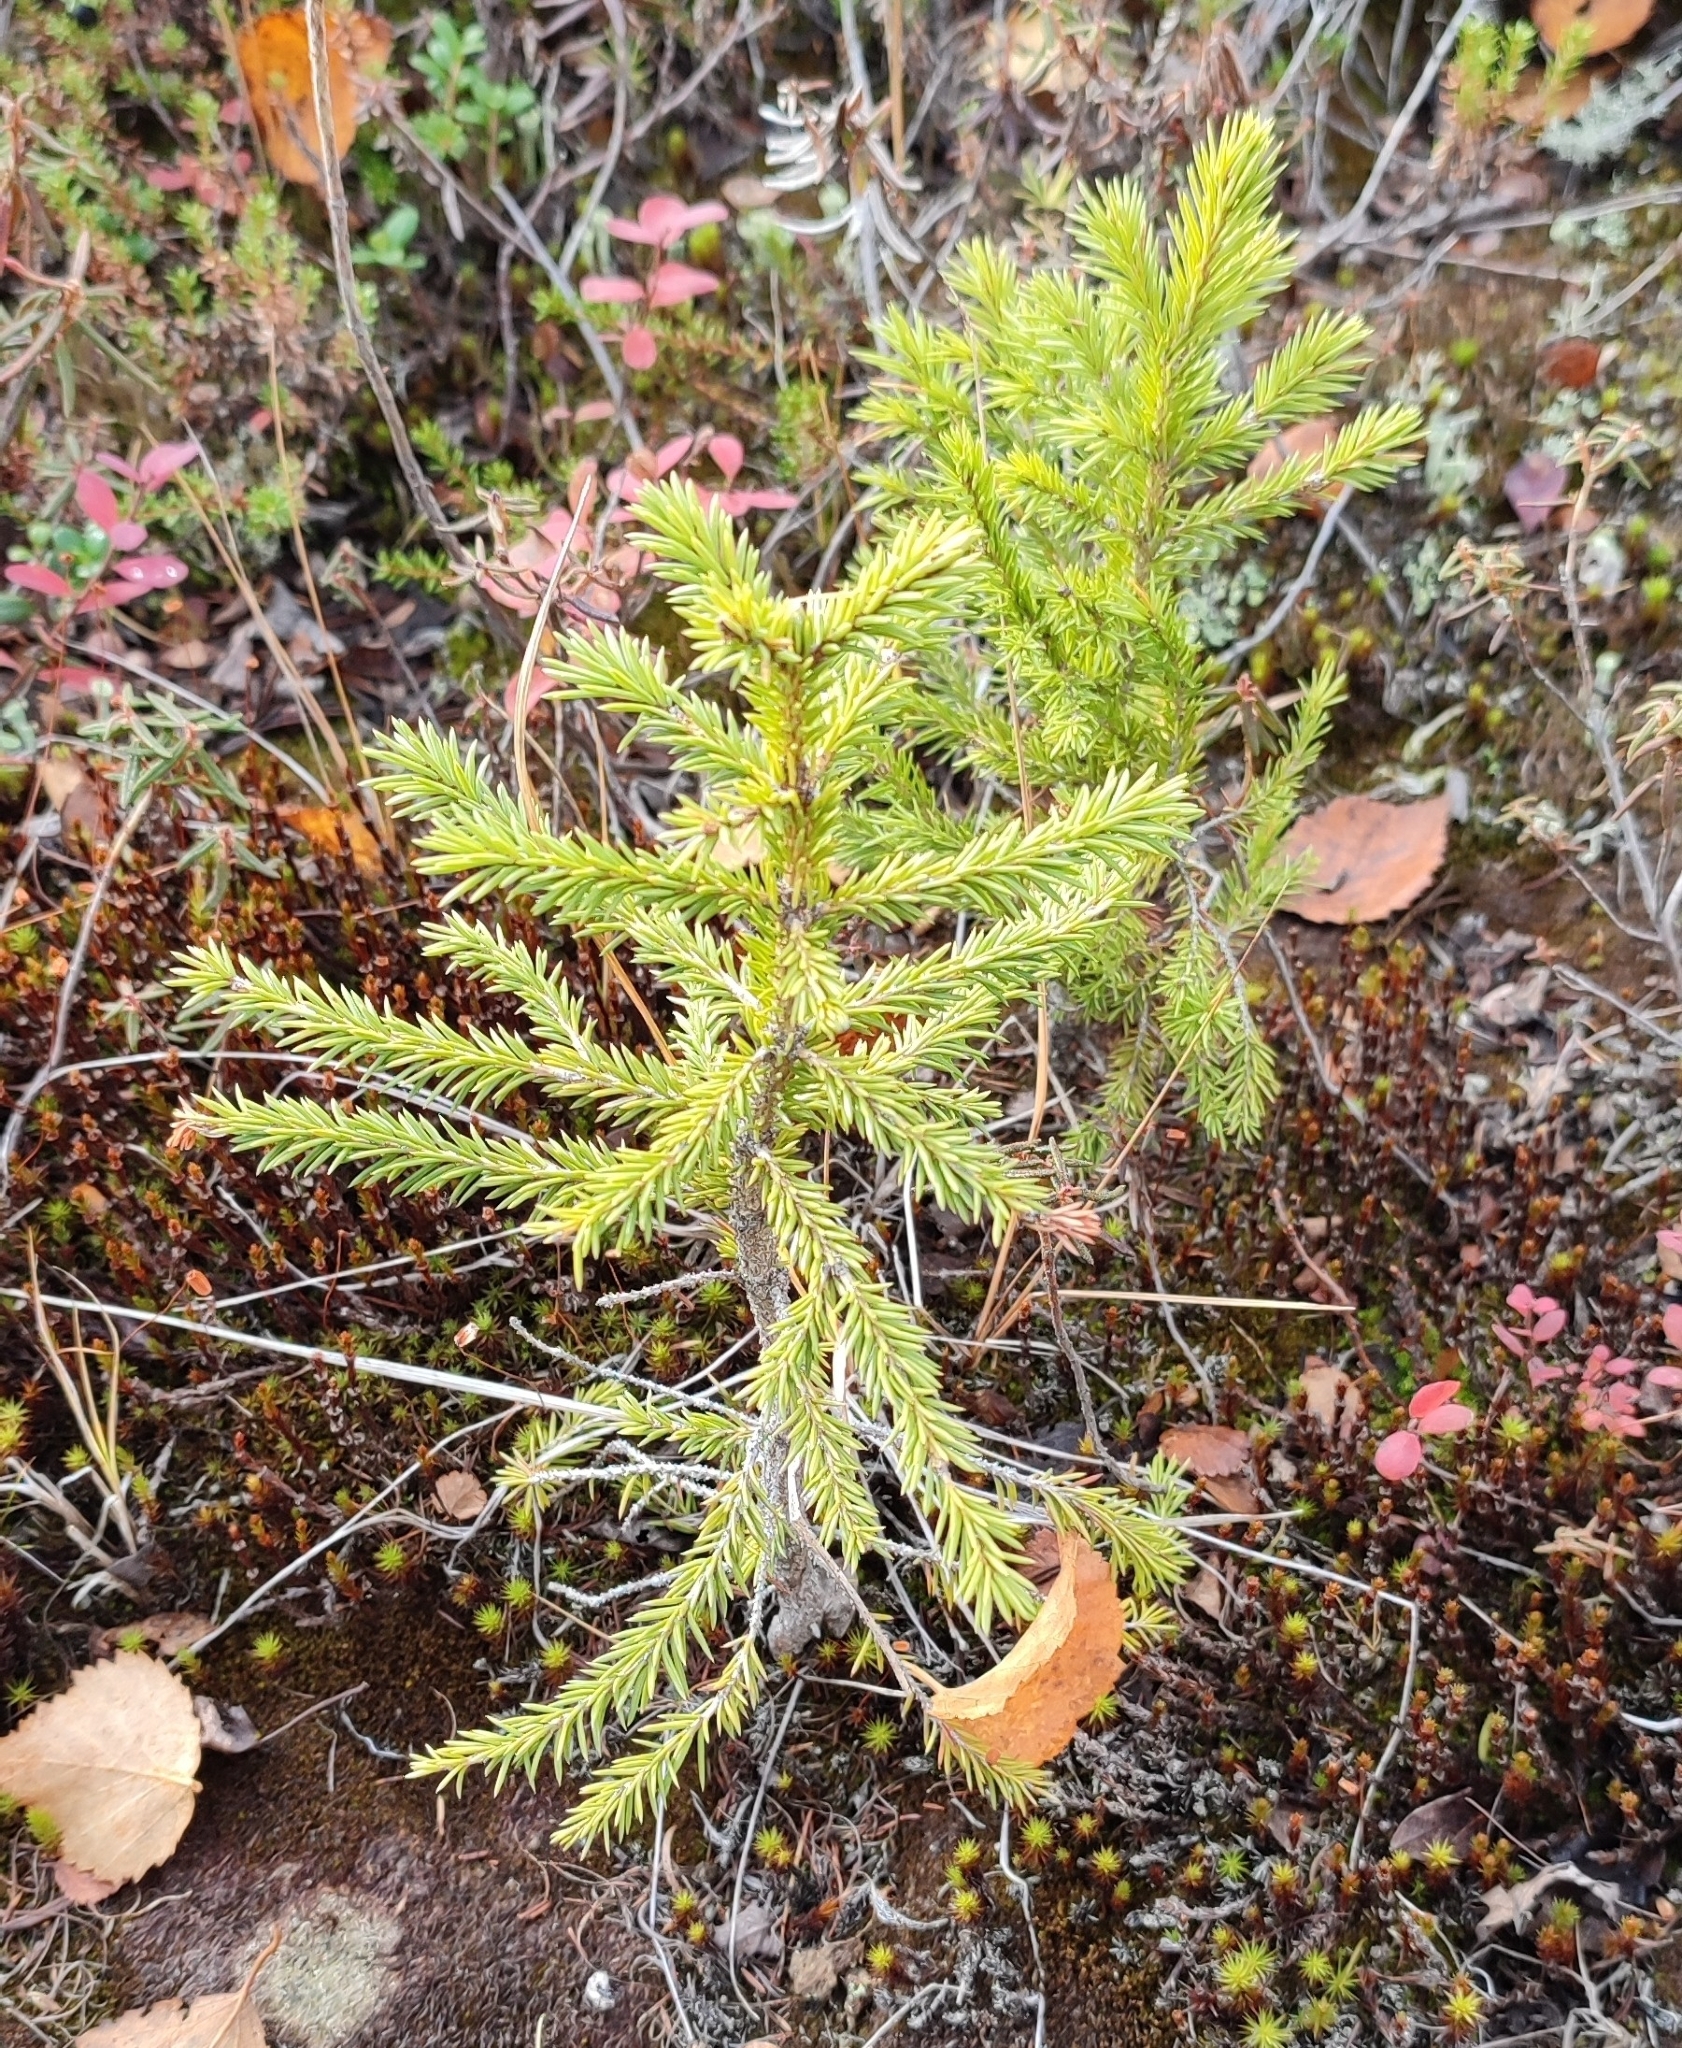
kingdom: Plantae
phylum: Tracheophyta
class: Pinopsida
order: Pinales
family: Pinaceae
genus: Picea
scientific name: Picea obovata
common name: Siberian spruce
